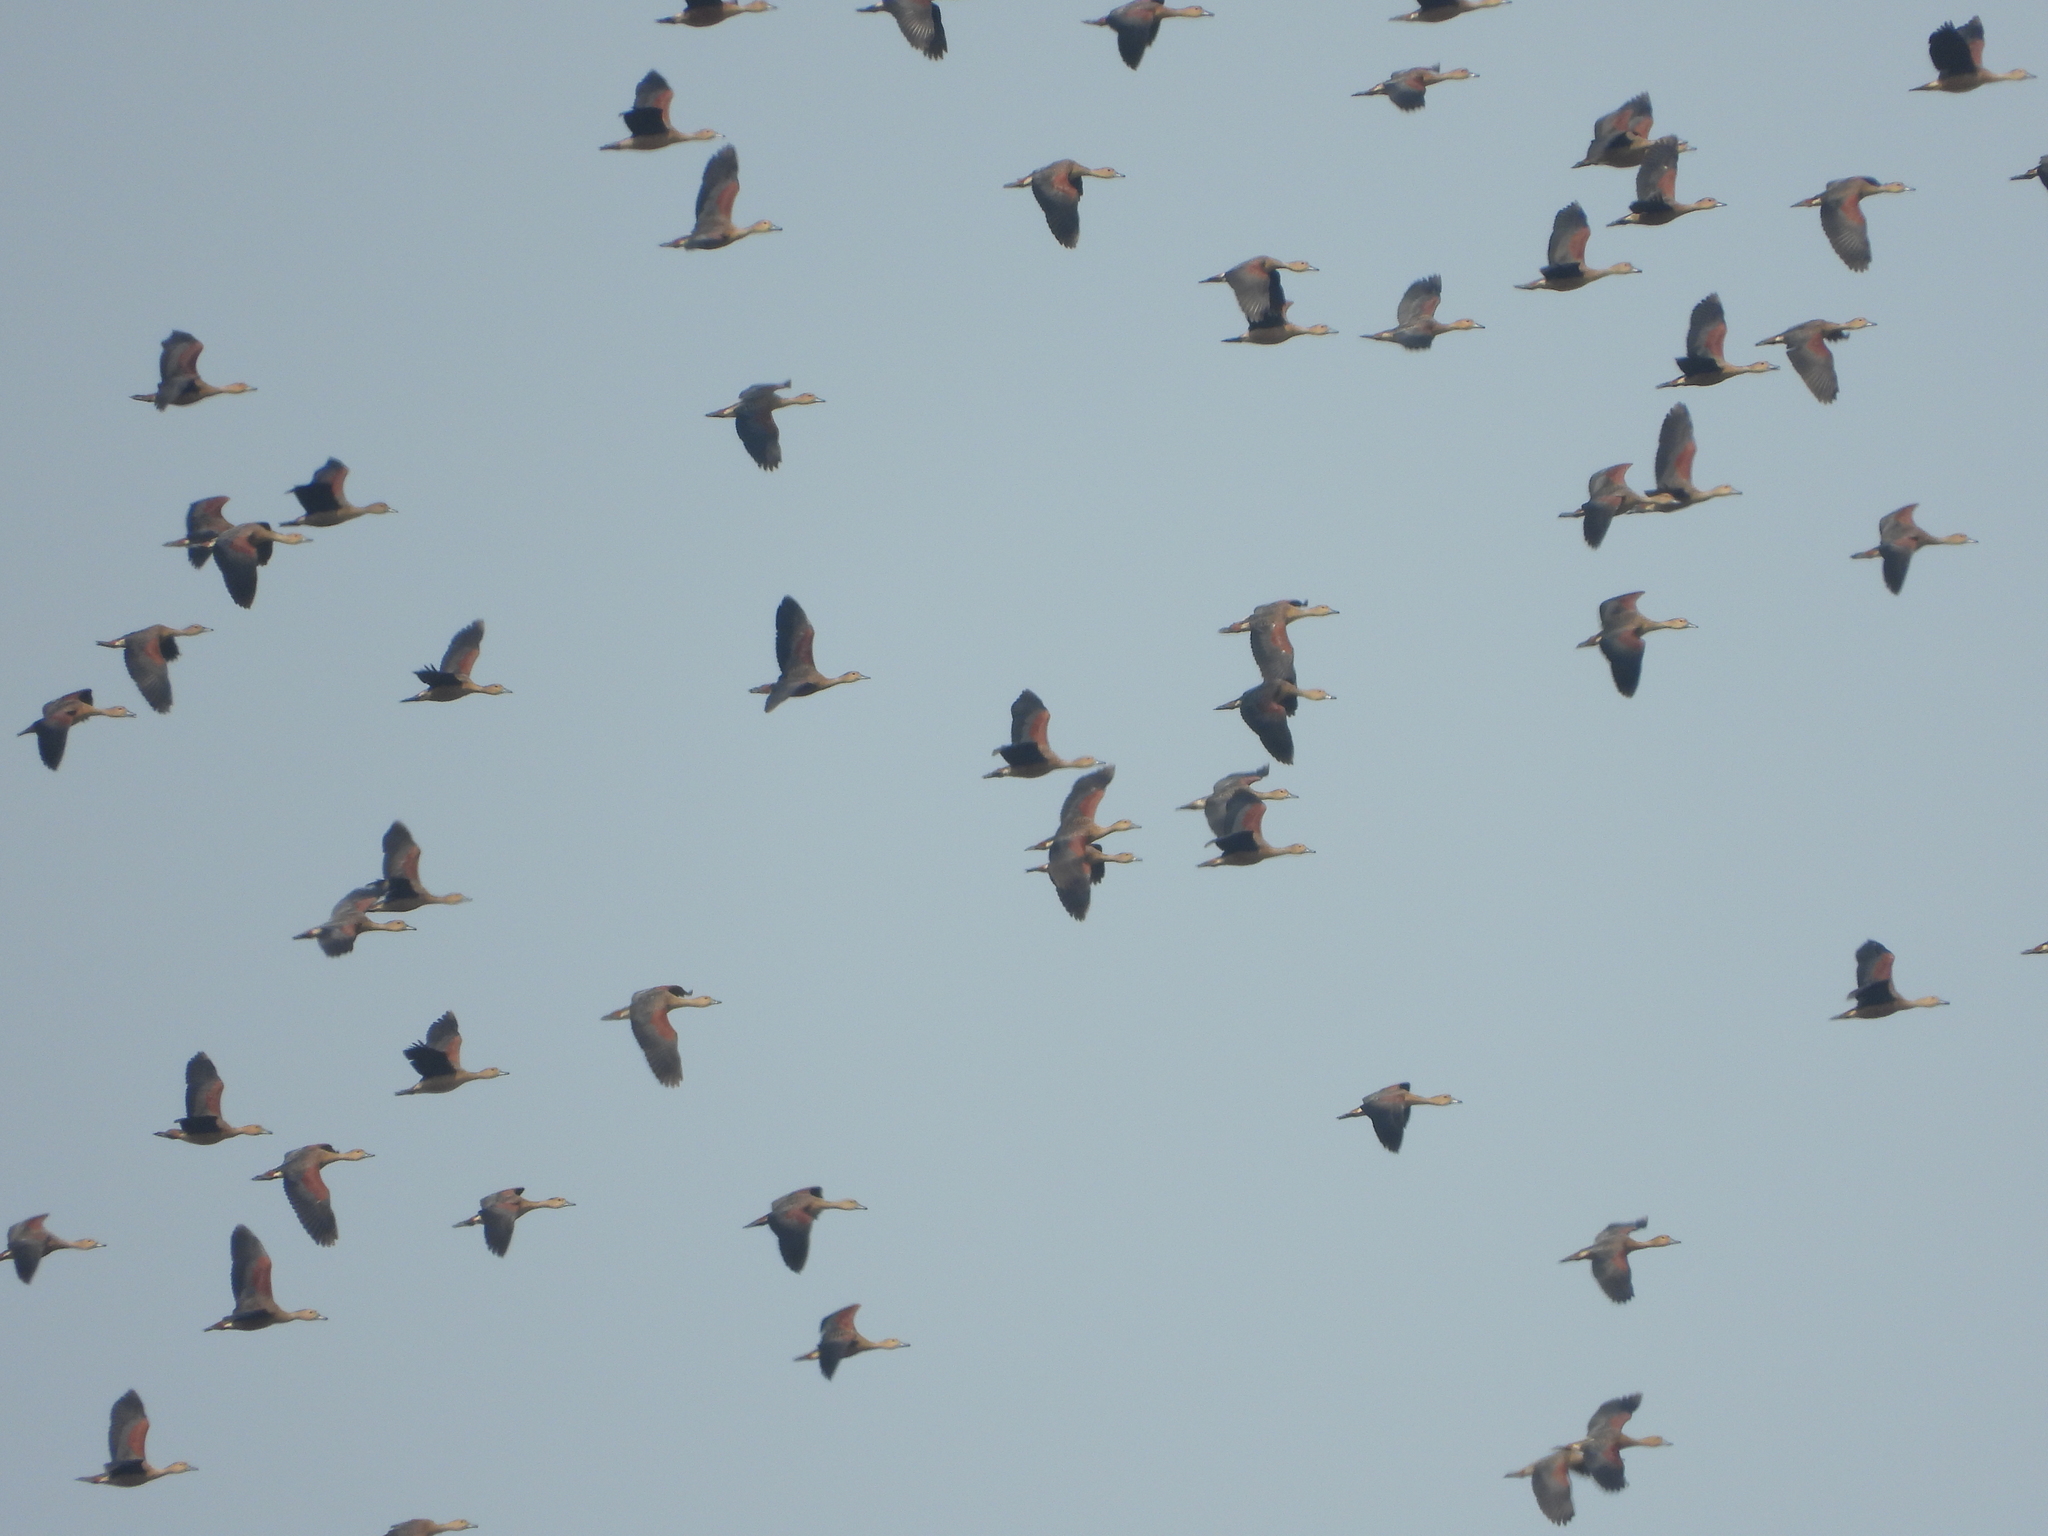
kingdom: Animalia
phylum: Chordata
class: Aves
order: Anseriformes
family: Anatidae
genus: Dendrocygna
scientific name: Dendrocygna javanica
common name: Lesser whistling-duck
